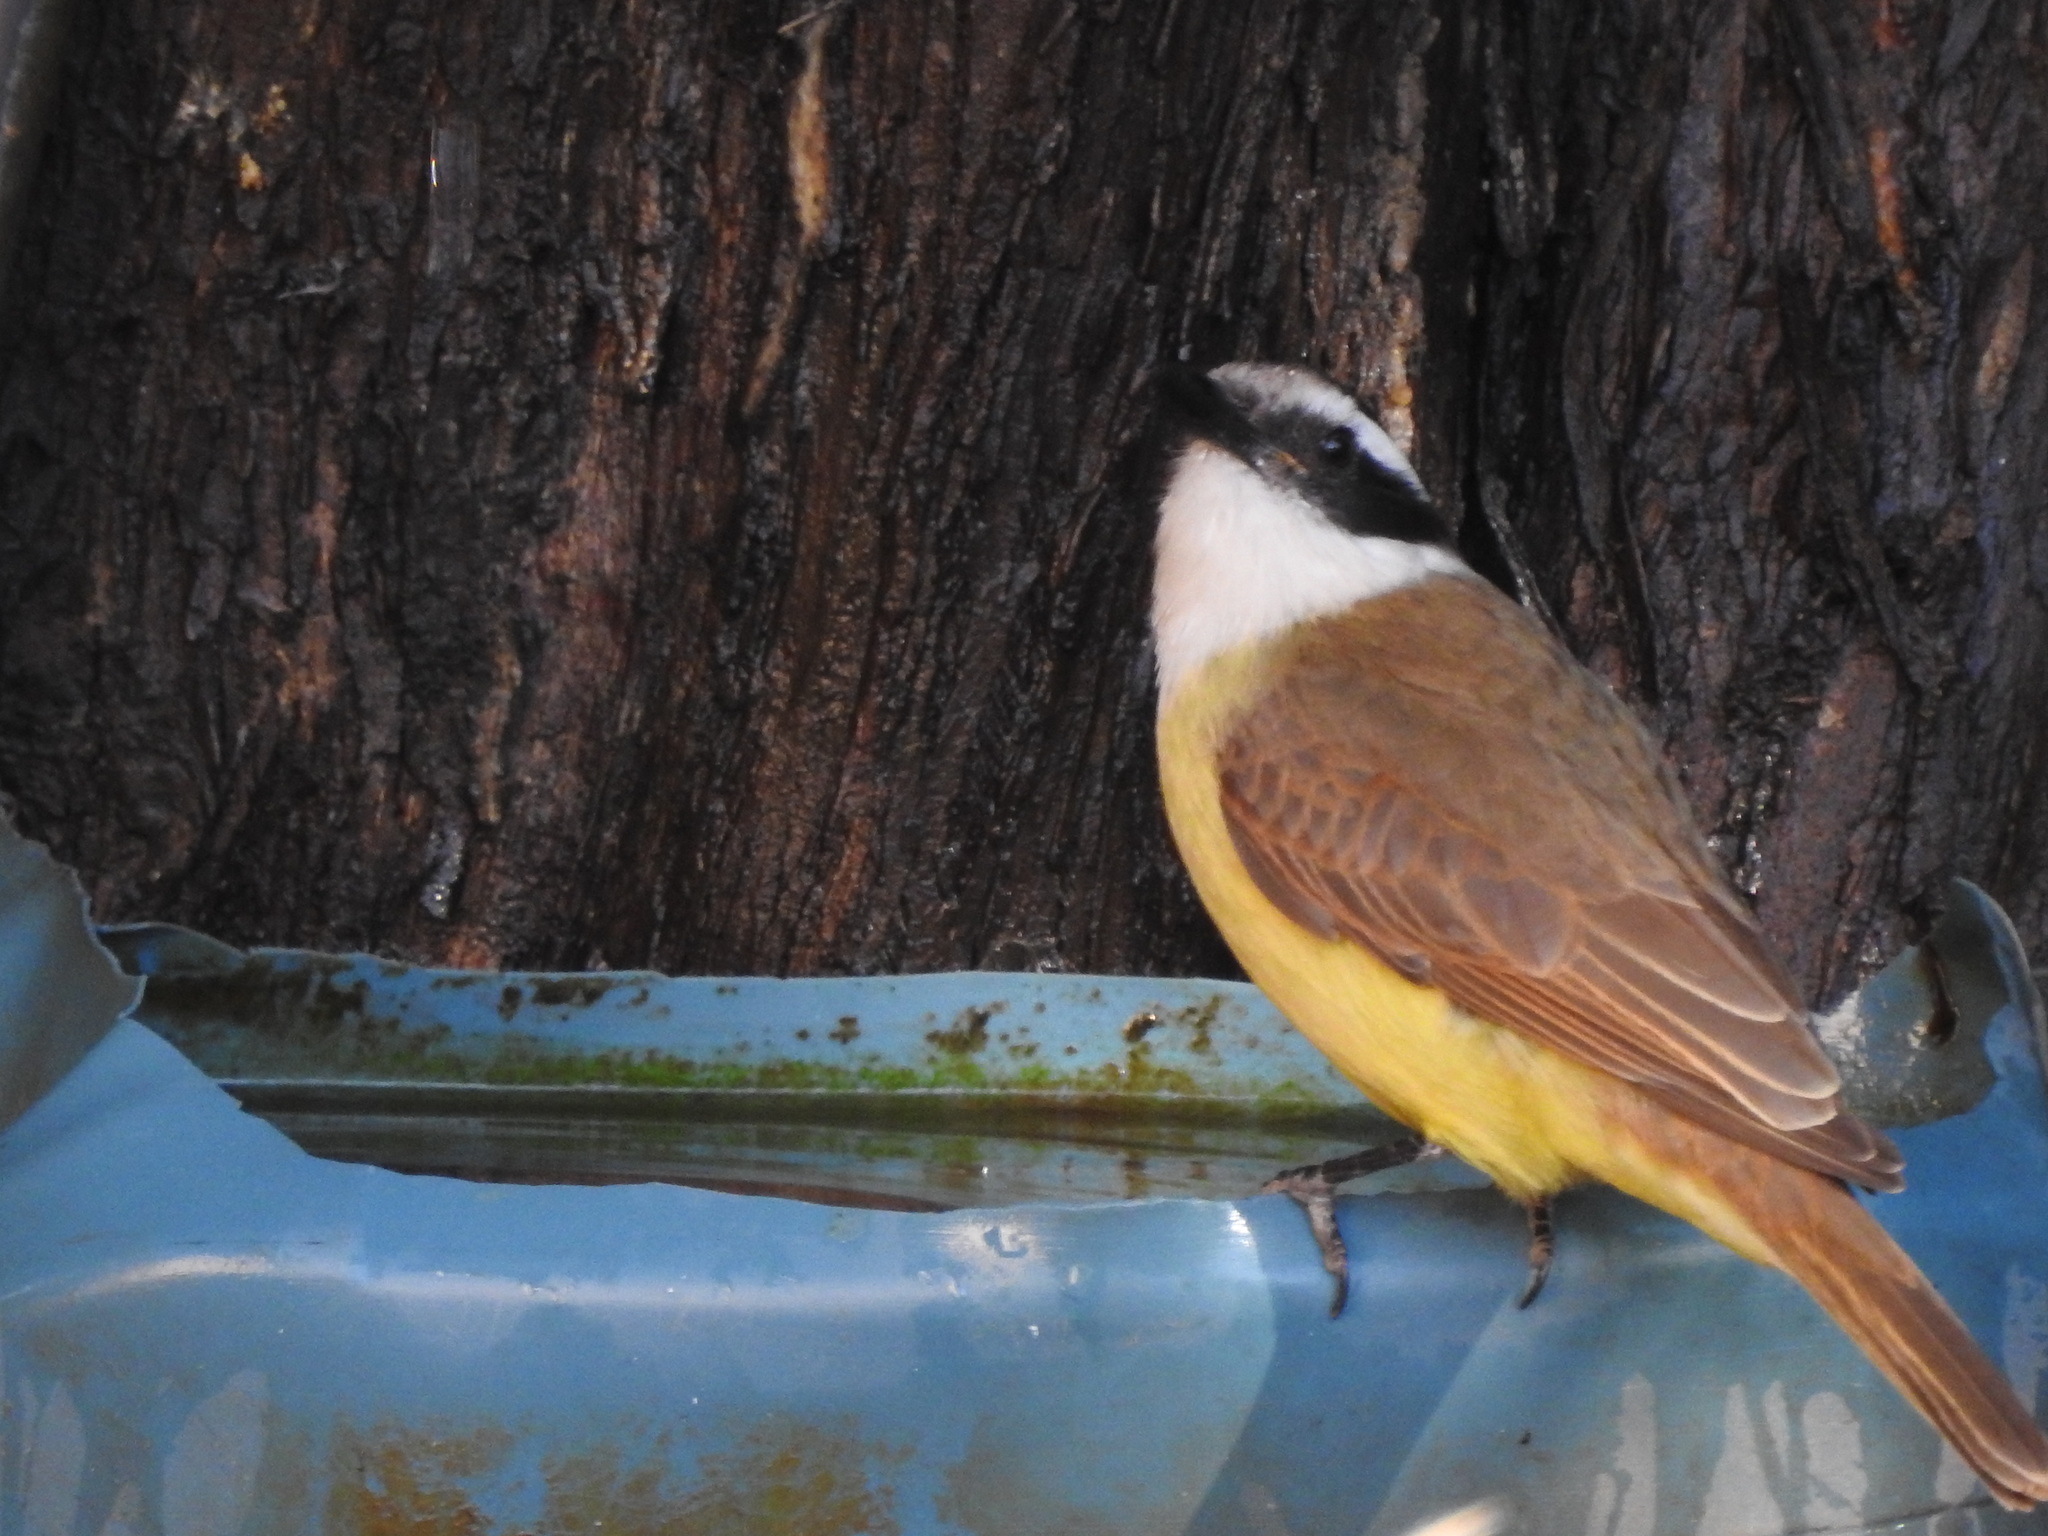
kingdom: Animalia
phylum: Chordata
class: Aves
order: Passeriformes
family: Tyrannidae
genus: Pitangus
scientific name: Pitangus sulphuratus
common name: Great kiskadee
